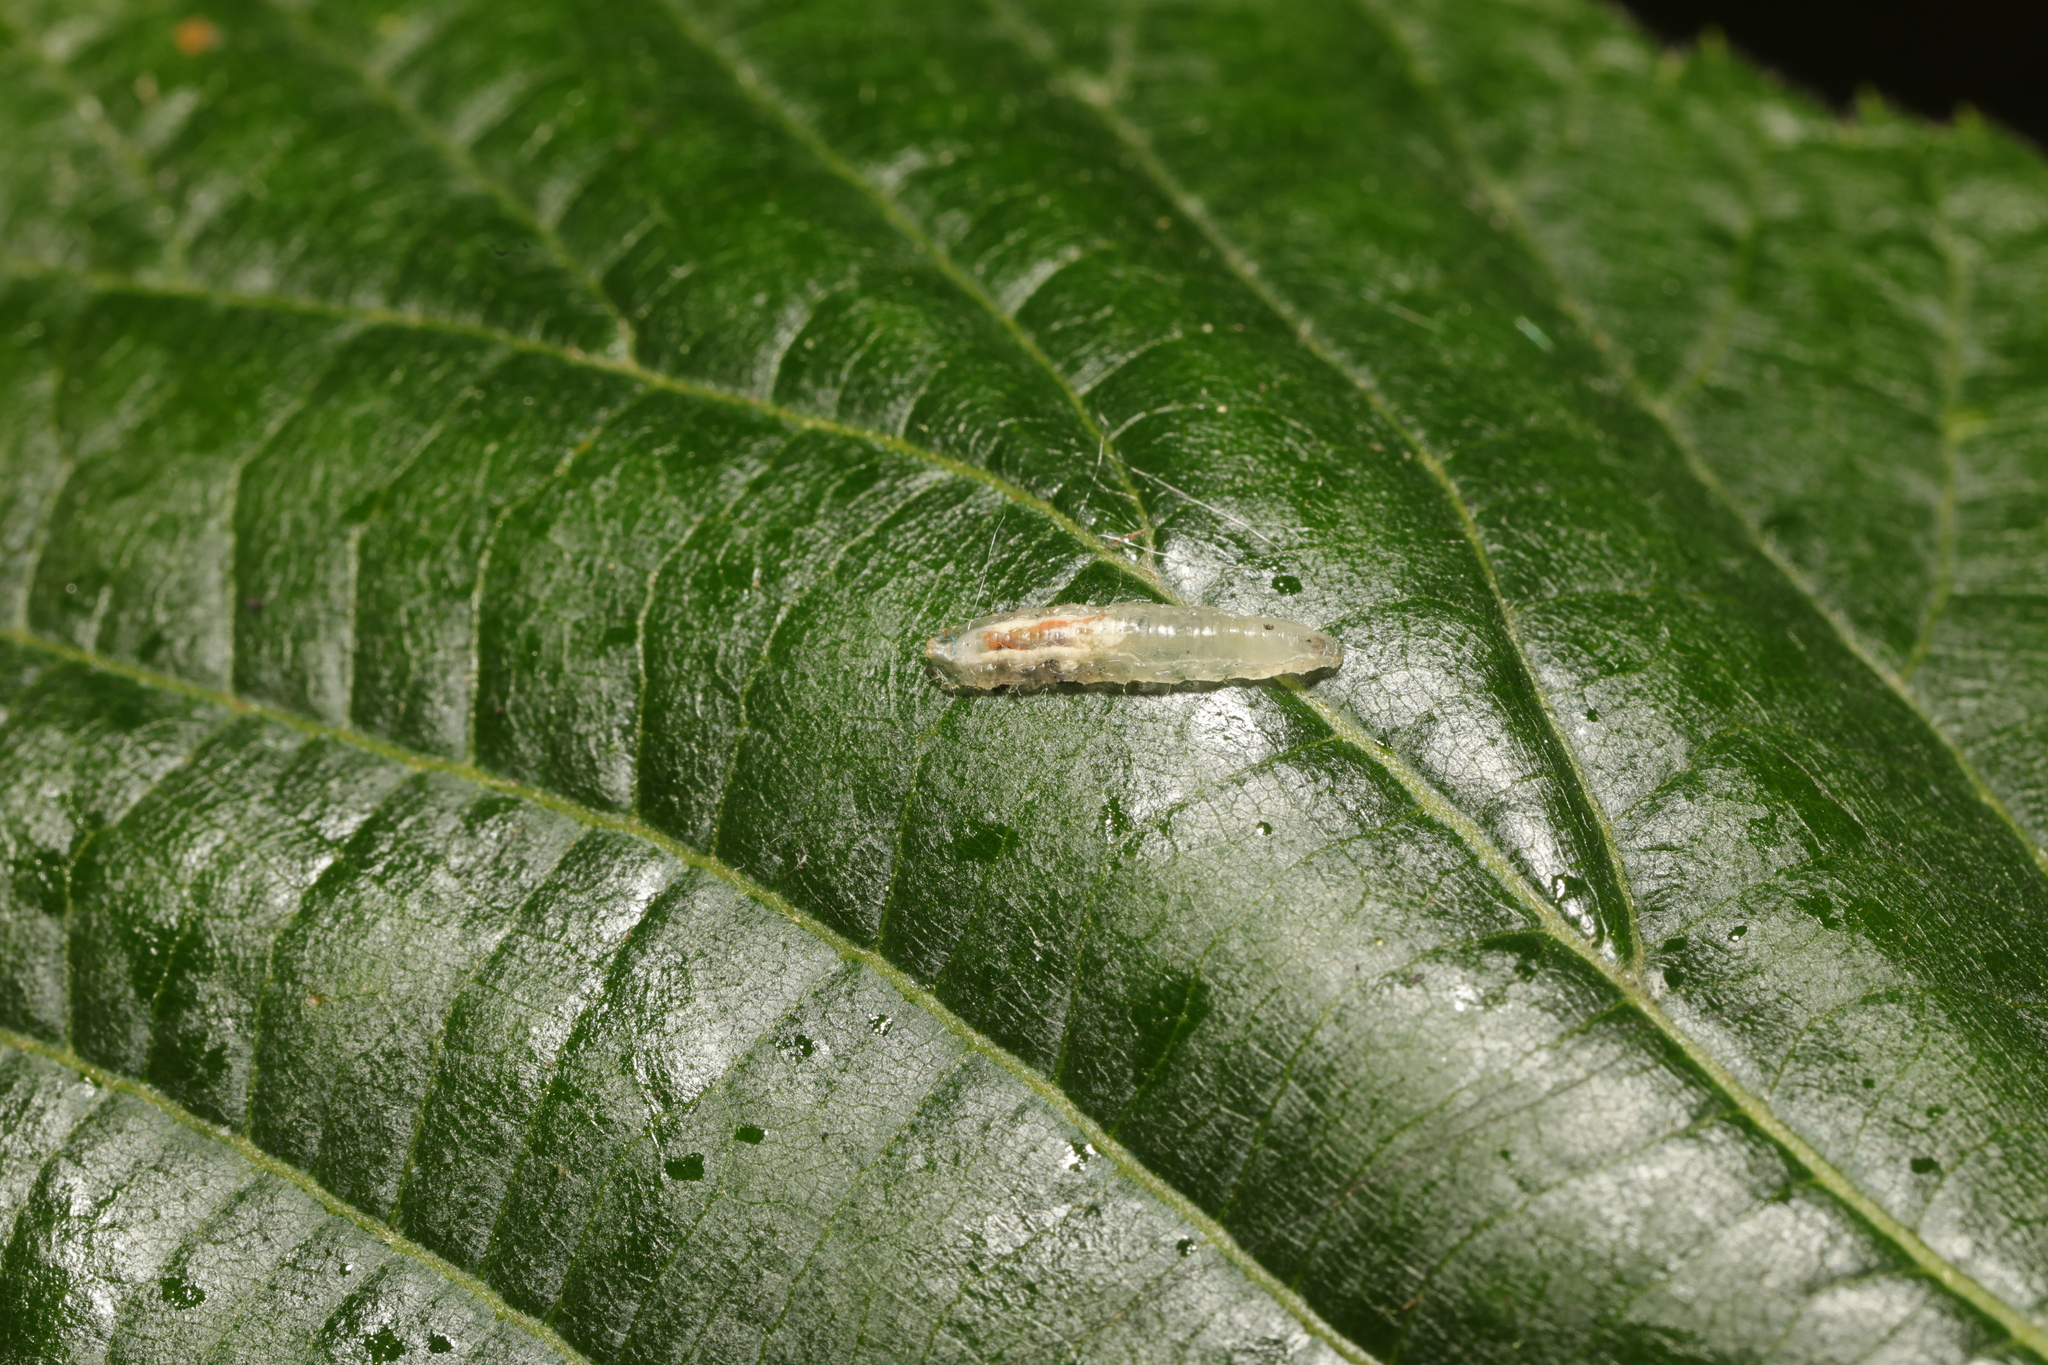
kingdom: Animalia
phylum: Arthropoda
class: Insecta
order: Diptera
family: Syrphidae
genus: Episyrphus
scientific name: Episyrphus balteatus
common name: Marmalade hoverfly
